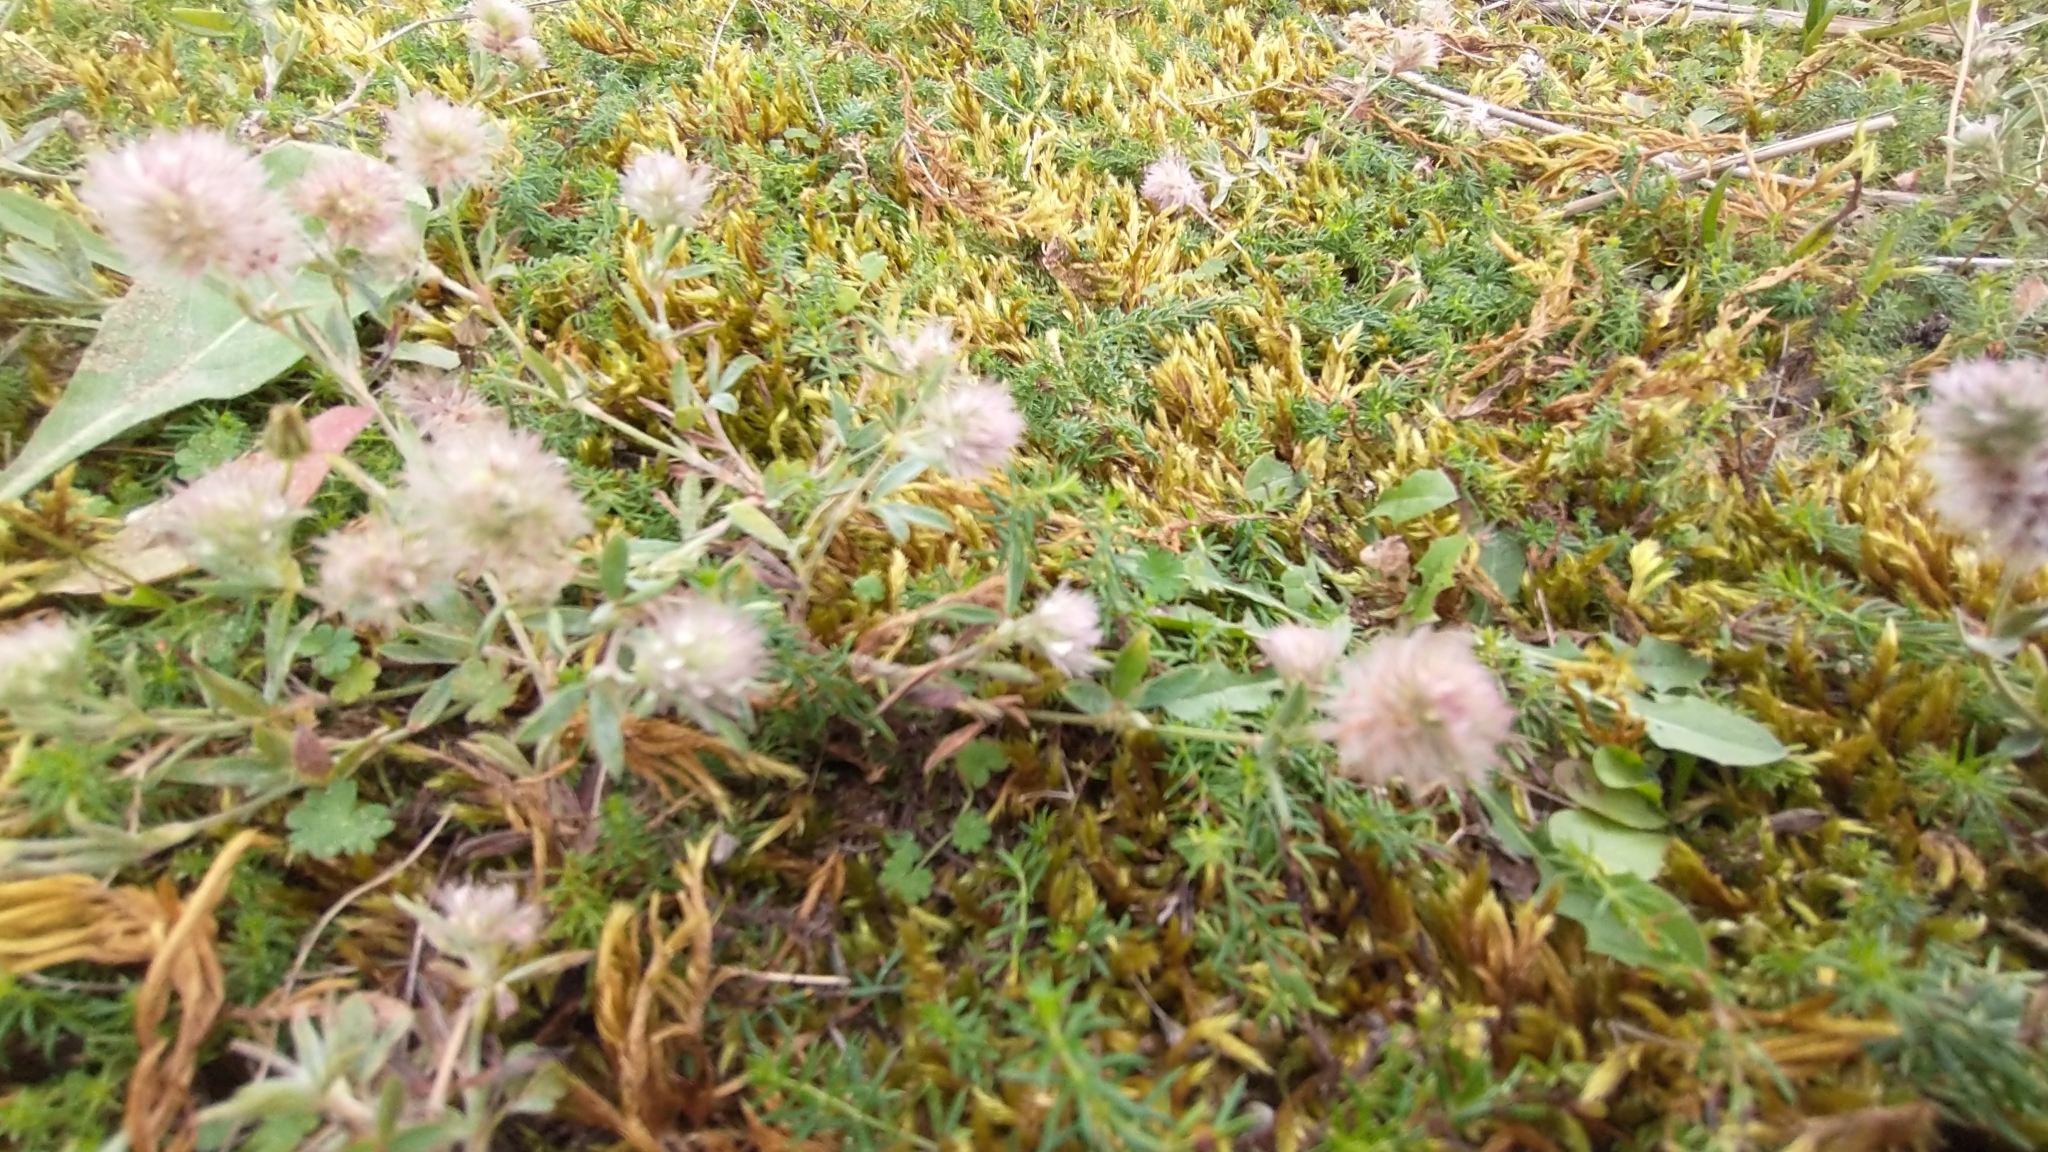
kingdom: Plantae
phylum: Tracheophyta
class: Magnoliopsida
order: Fabales
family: Fabaceae
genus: Trifolium
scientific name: Trifolium arvense
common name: Hare's-foot clover
